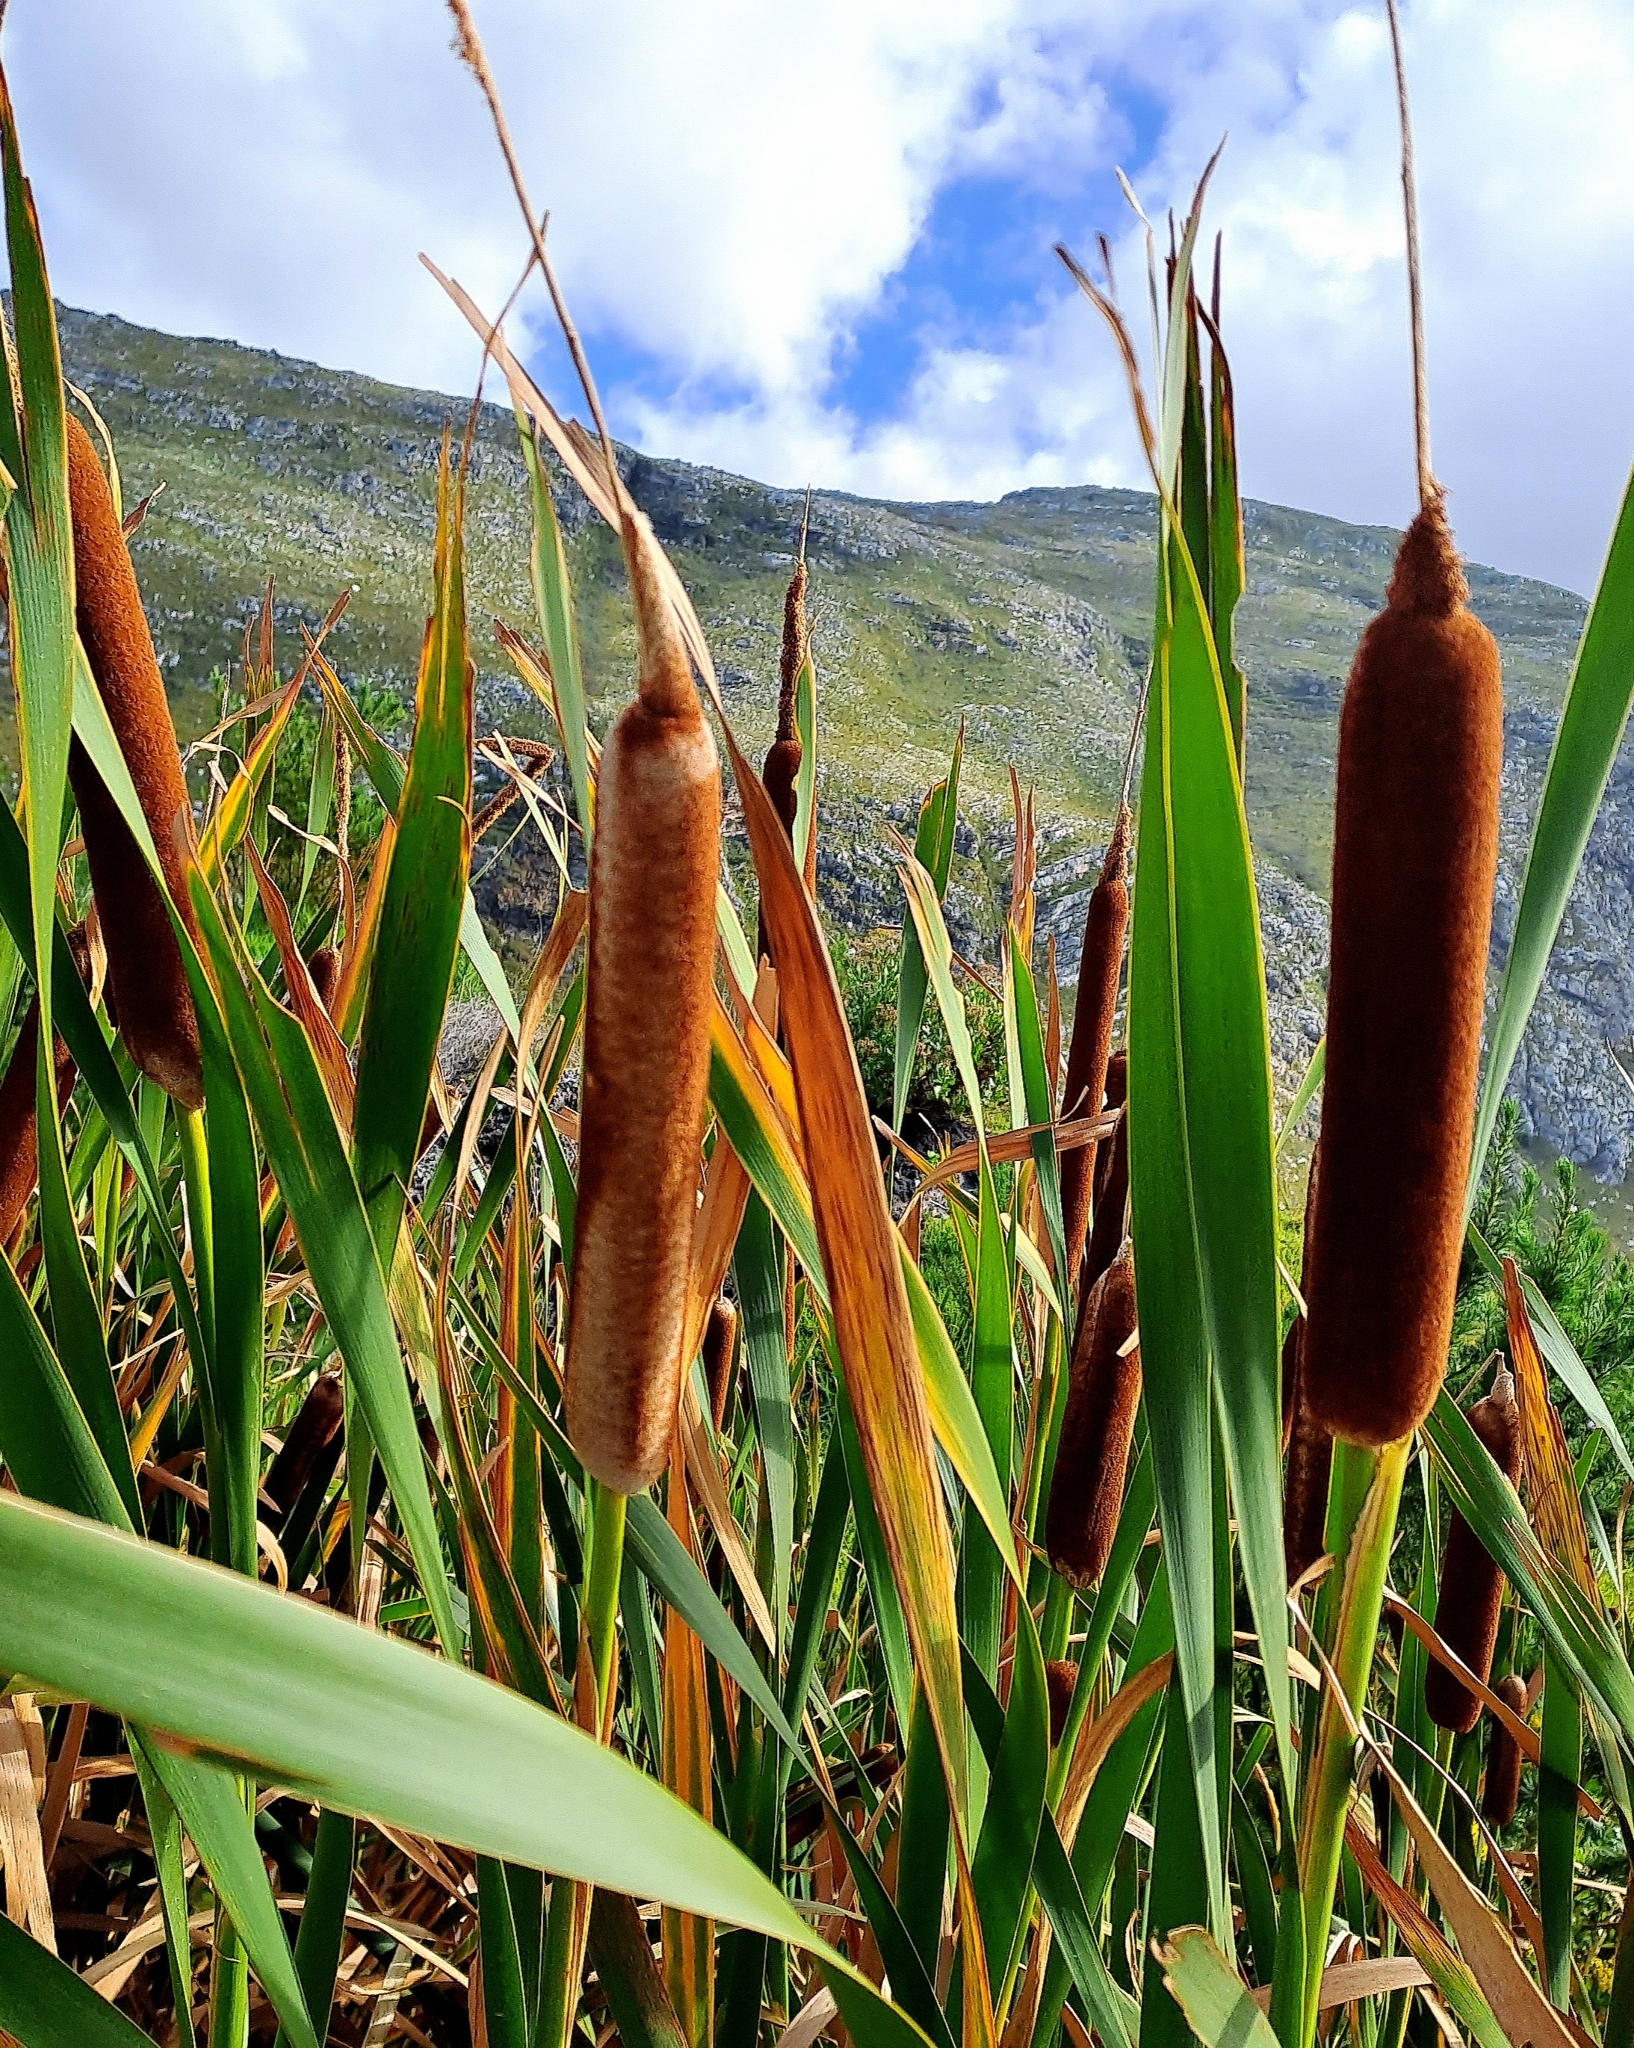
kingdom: Plantae
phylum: Tracheophyta
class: Liliopsida
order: Poales
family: Typhaceae
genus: Typha
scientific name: Typha capensis
